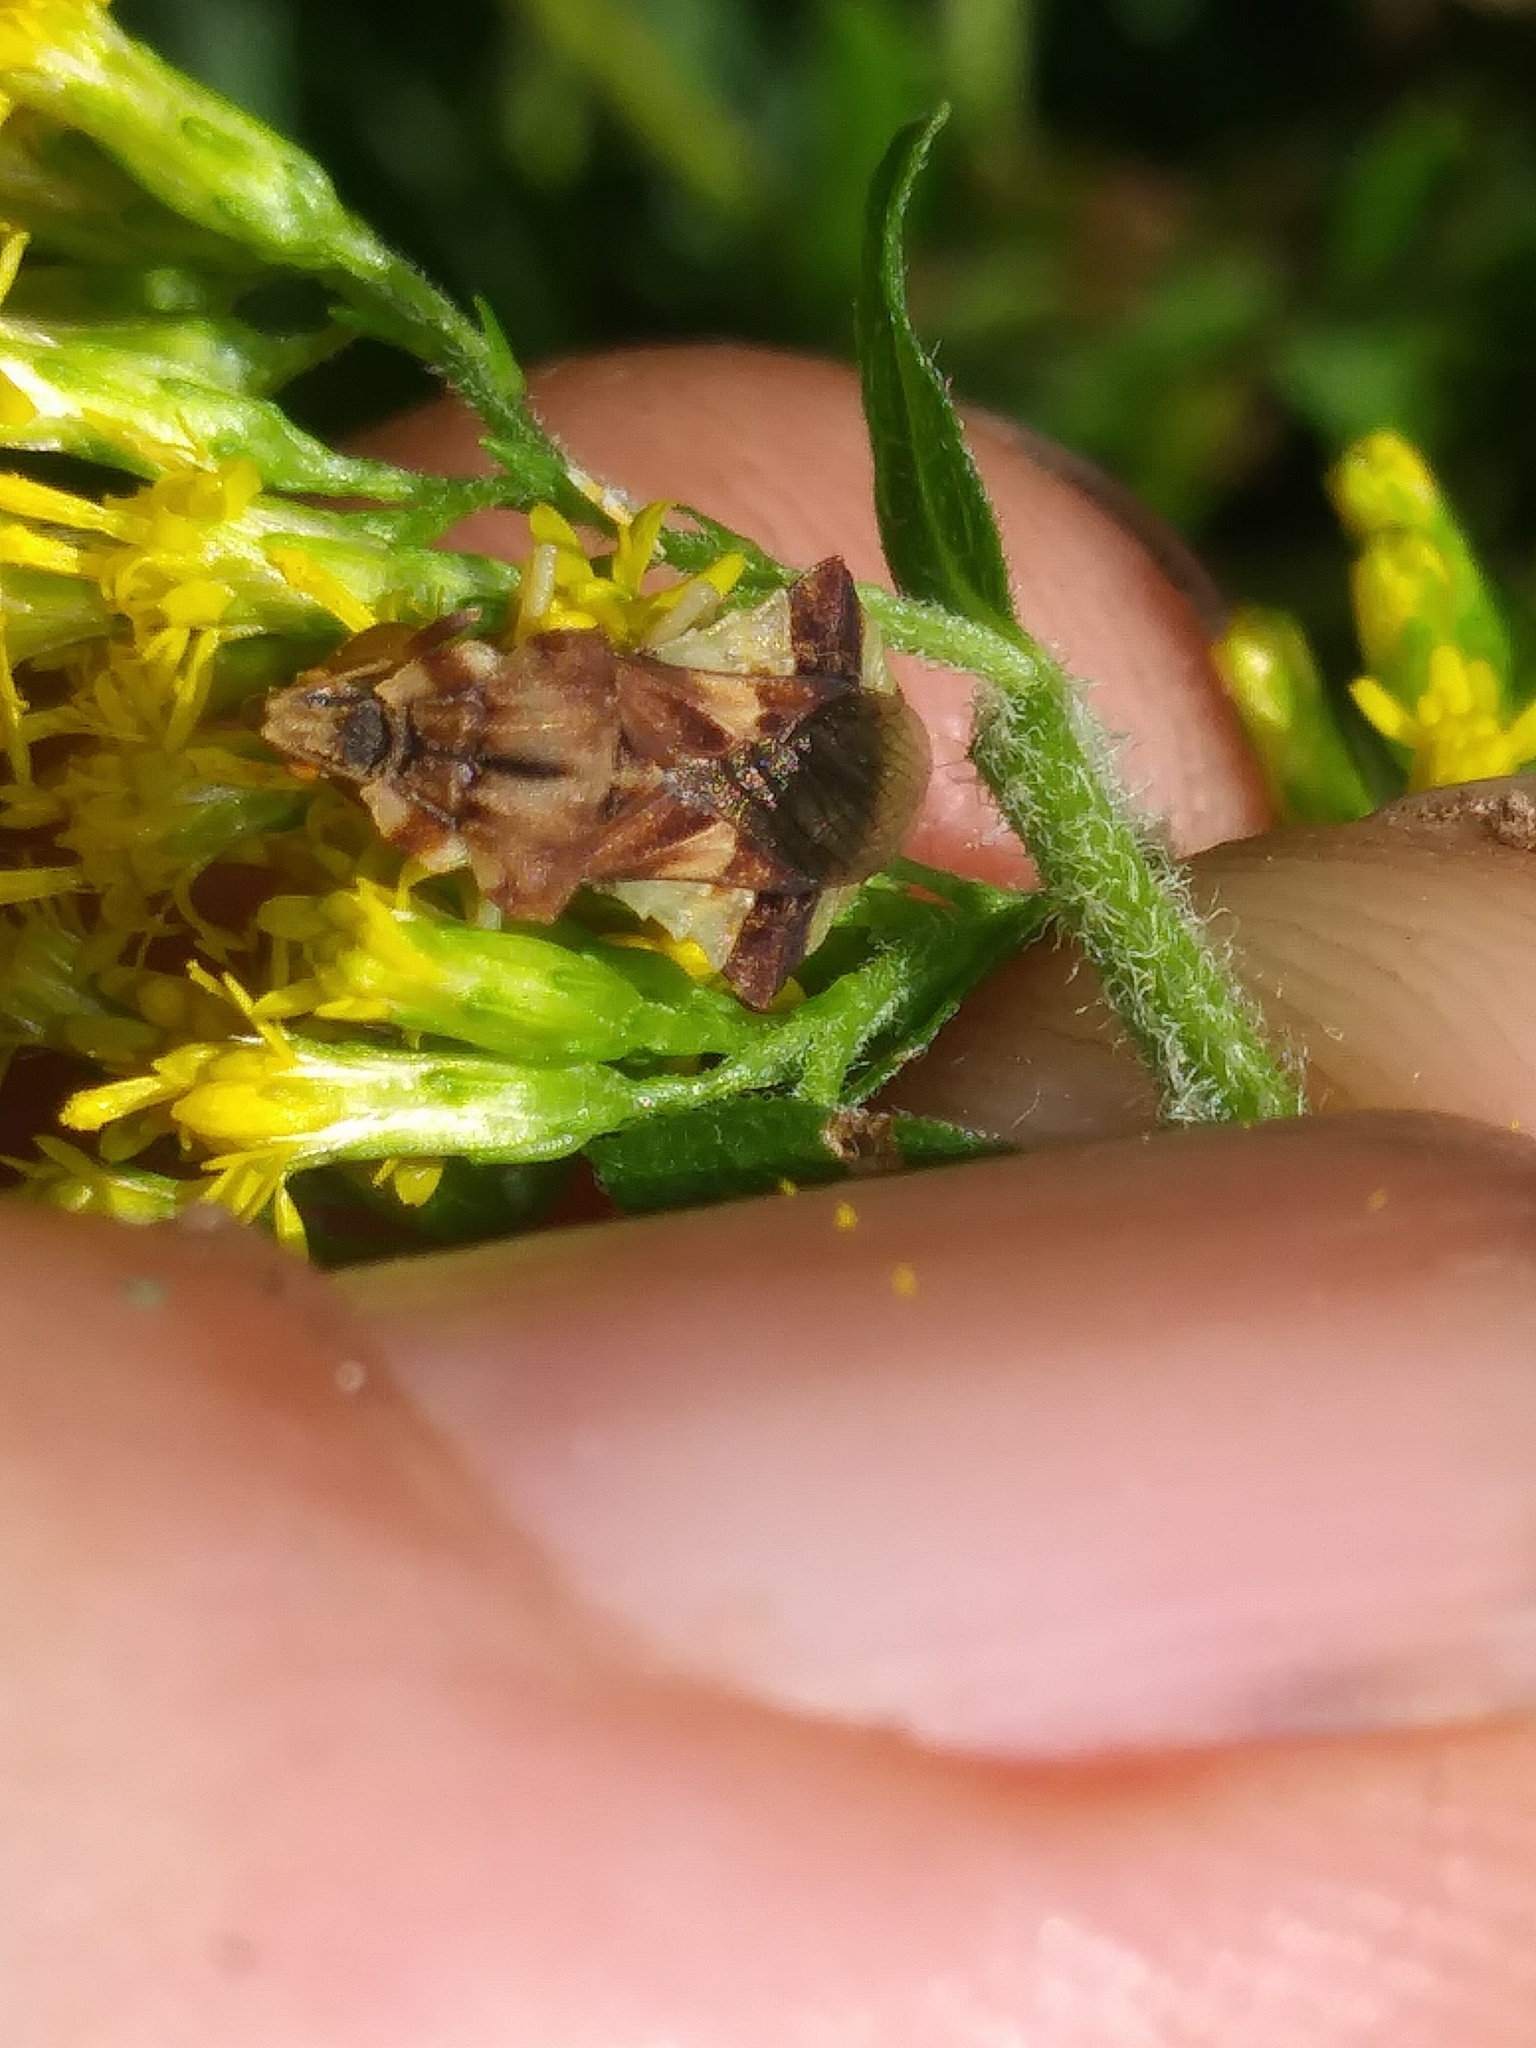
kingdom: Animalia
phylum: Arthropoda
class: Insecta
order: Hemiptera
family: Reduviidae
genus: Phymata
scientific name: Phymata fasciata
